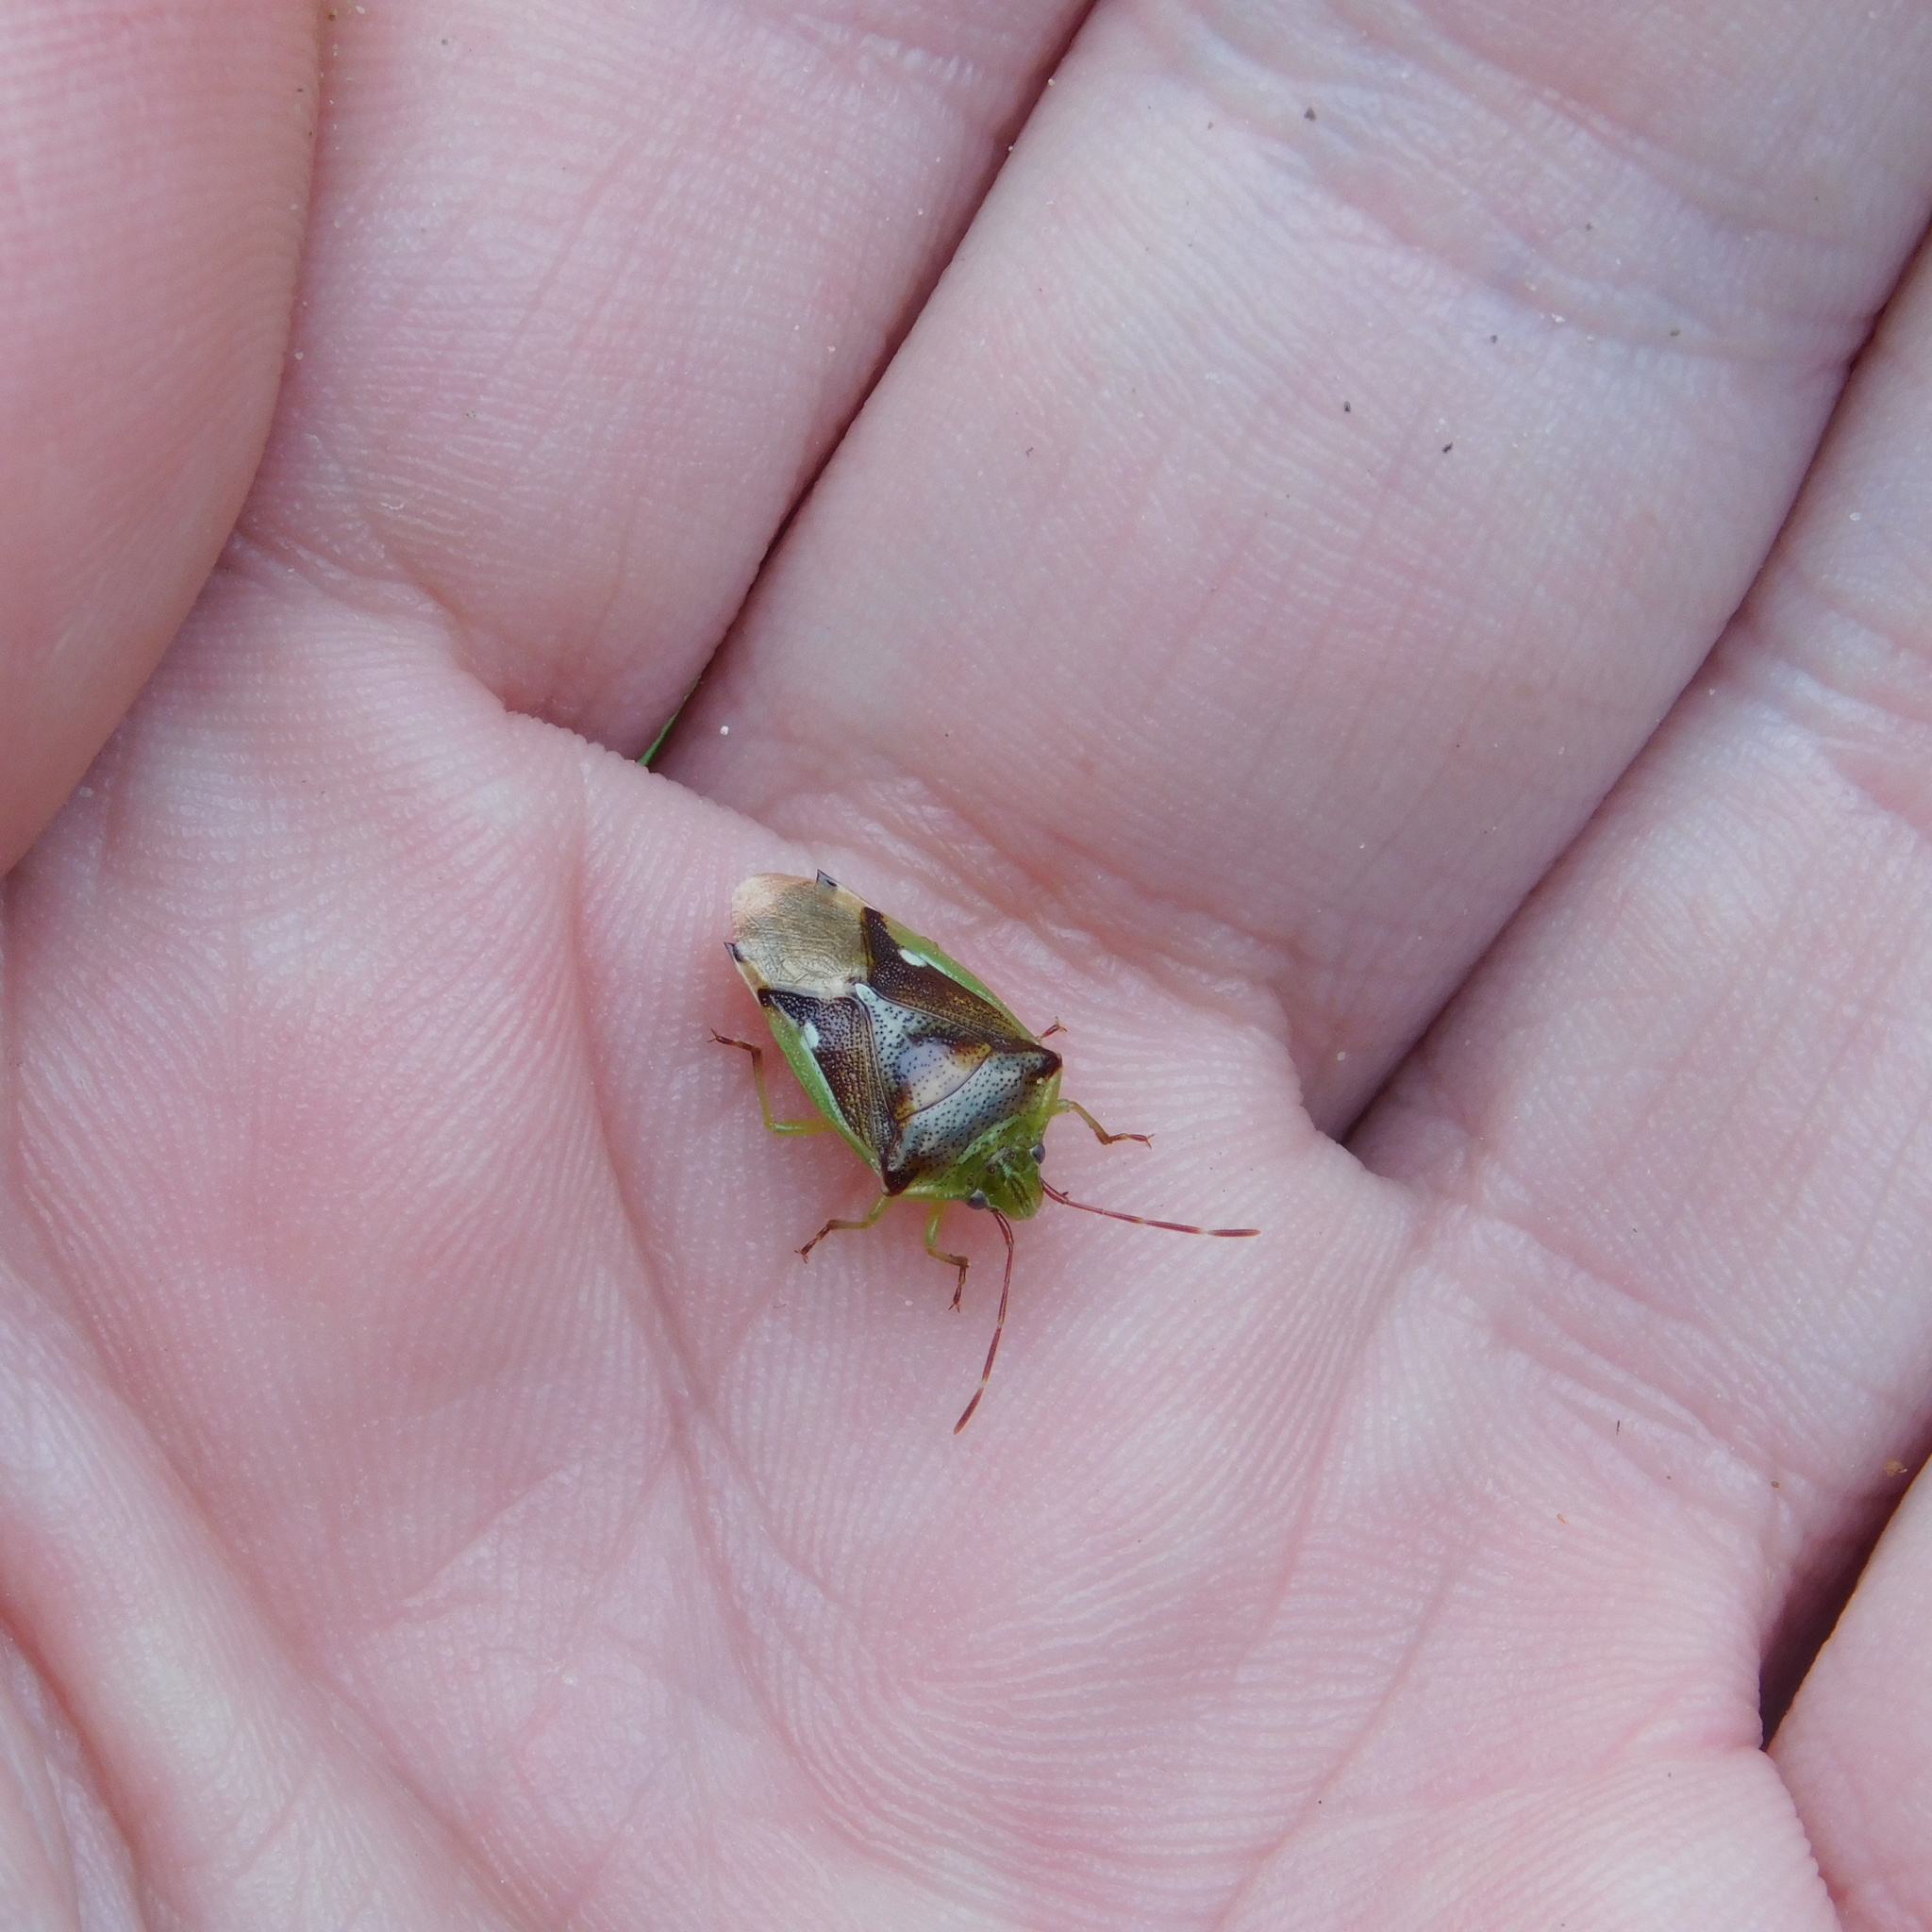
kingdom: Animalia
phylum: Arthropoda
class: Insecta
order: Hemiptera
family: Acanthosomatidae
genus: Oncacontias
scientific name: Oncacontias vittatus
